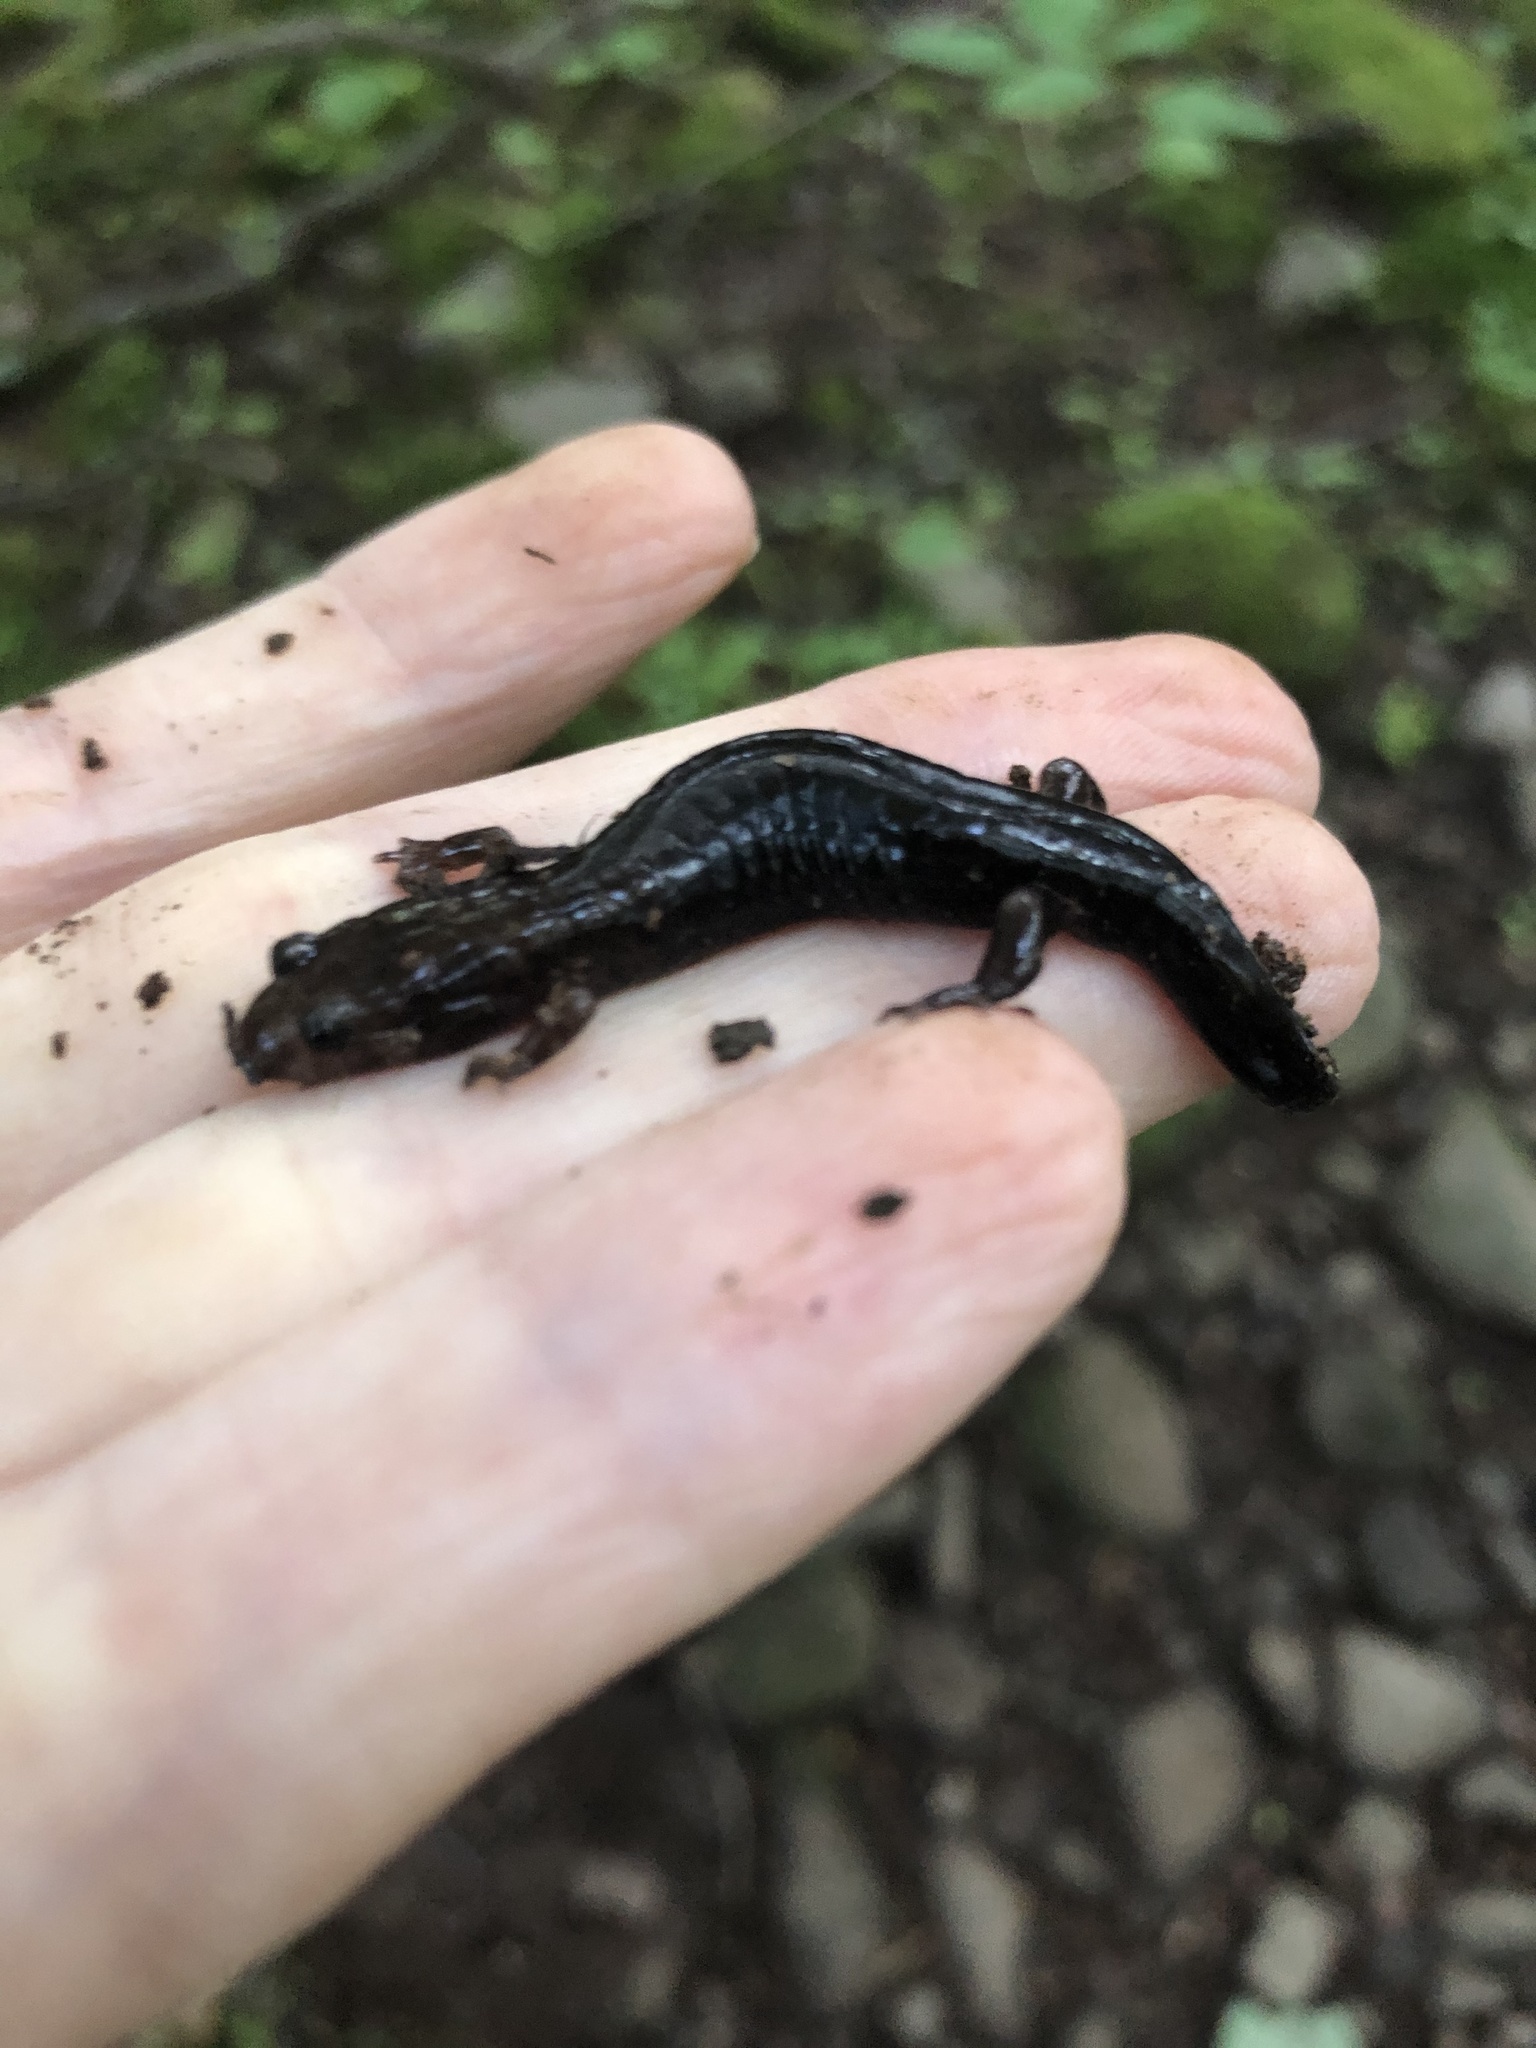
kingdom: Animalia
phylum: Chordata
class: Amphibia
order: Caudata
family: Plethodontidae
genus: Desmognathus
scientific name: Desmognathus fuscus
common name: Northern dusky salamander
